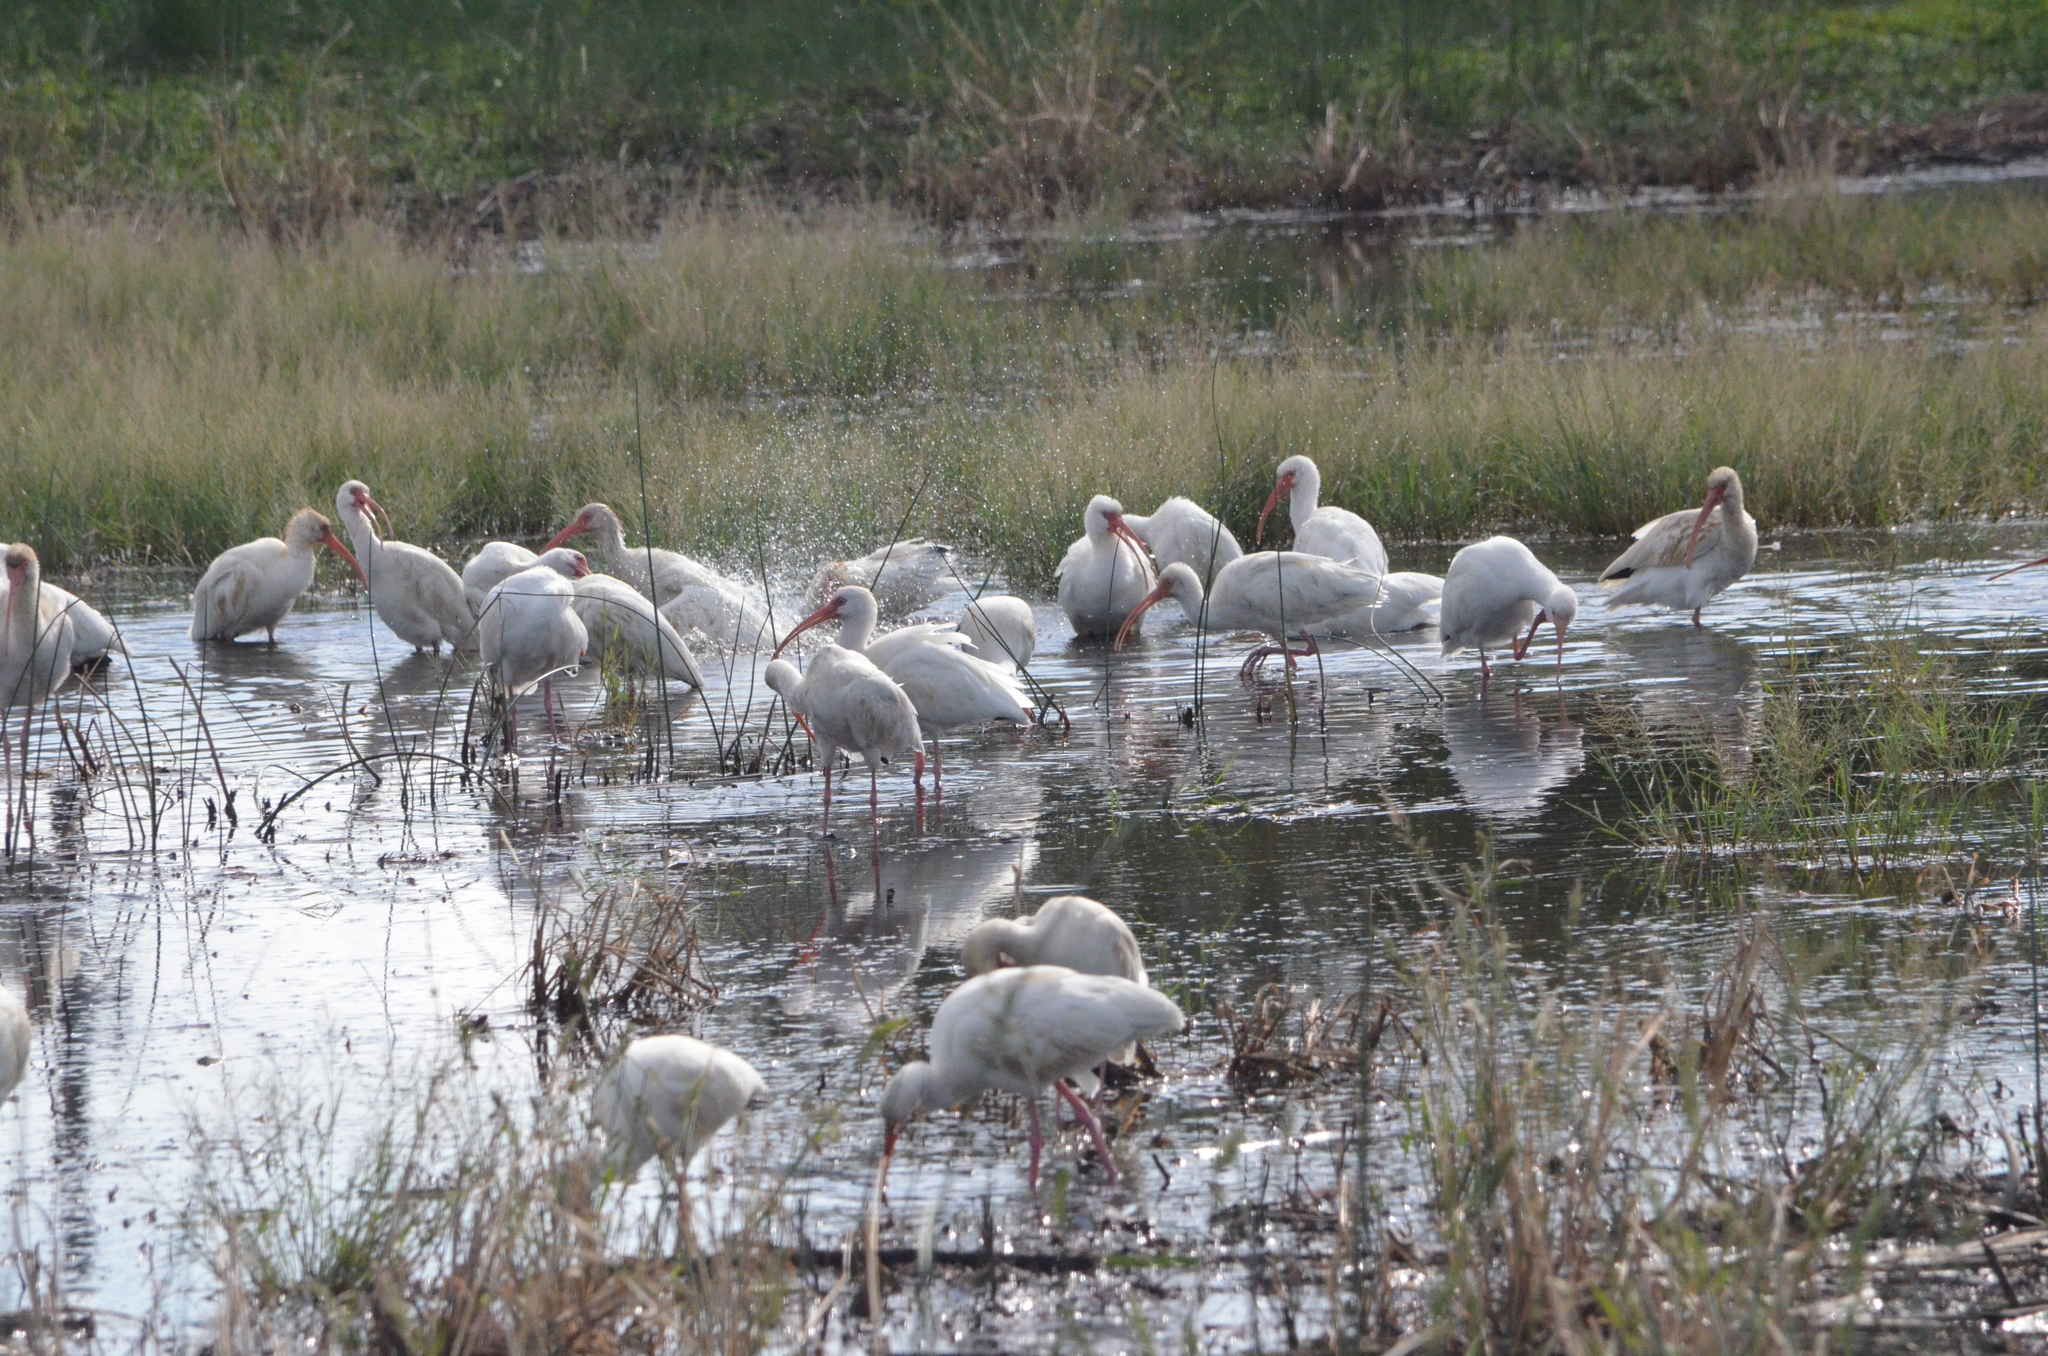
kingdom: Animalia
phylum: Chordata
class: Aves
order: Pelecaniformes
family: Threskiornithidae
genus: Eudocimus
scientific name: Eudocimus albus
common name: White ibis
